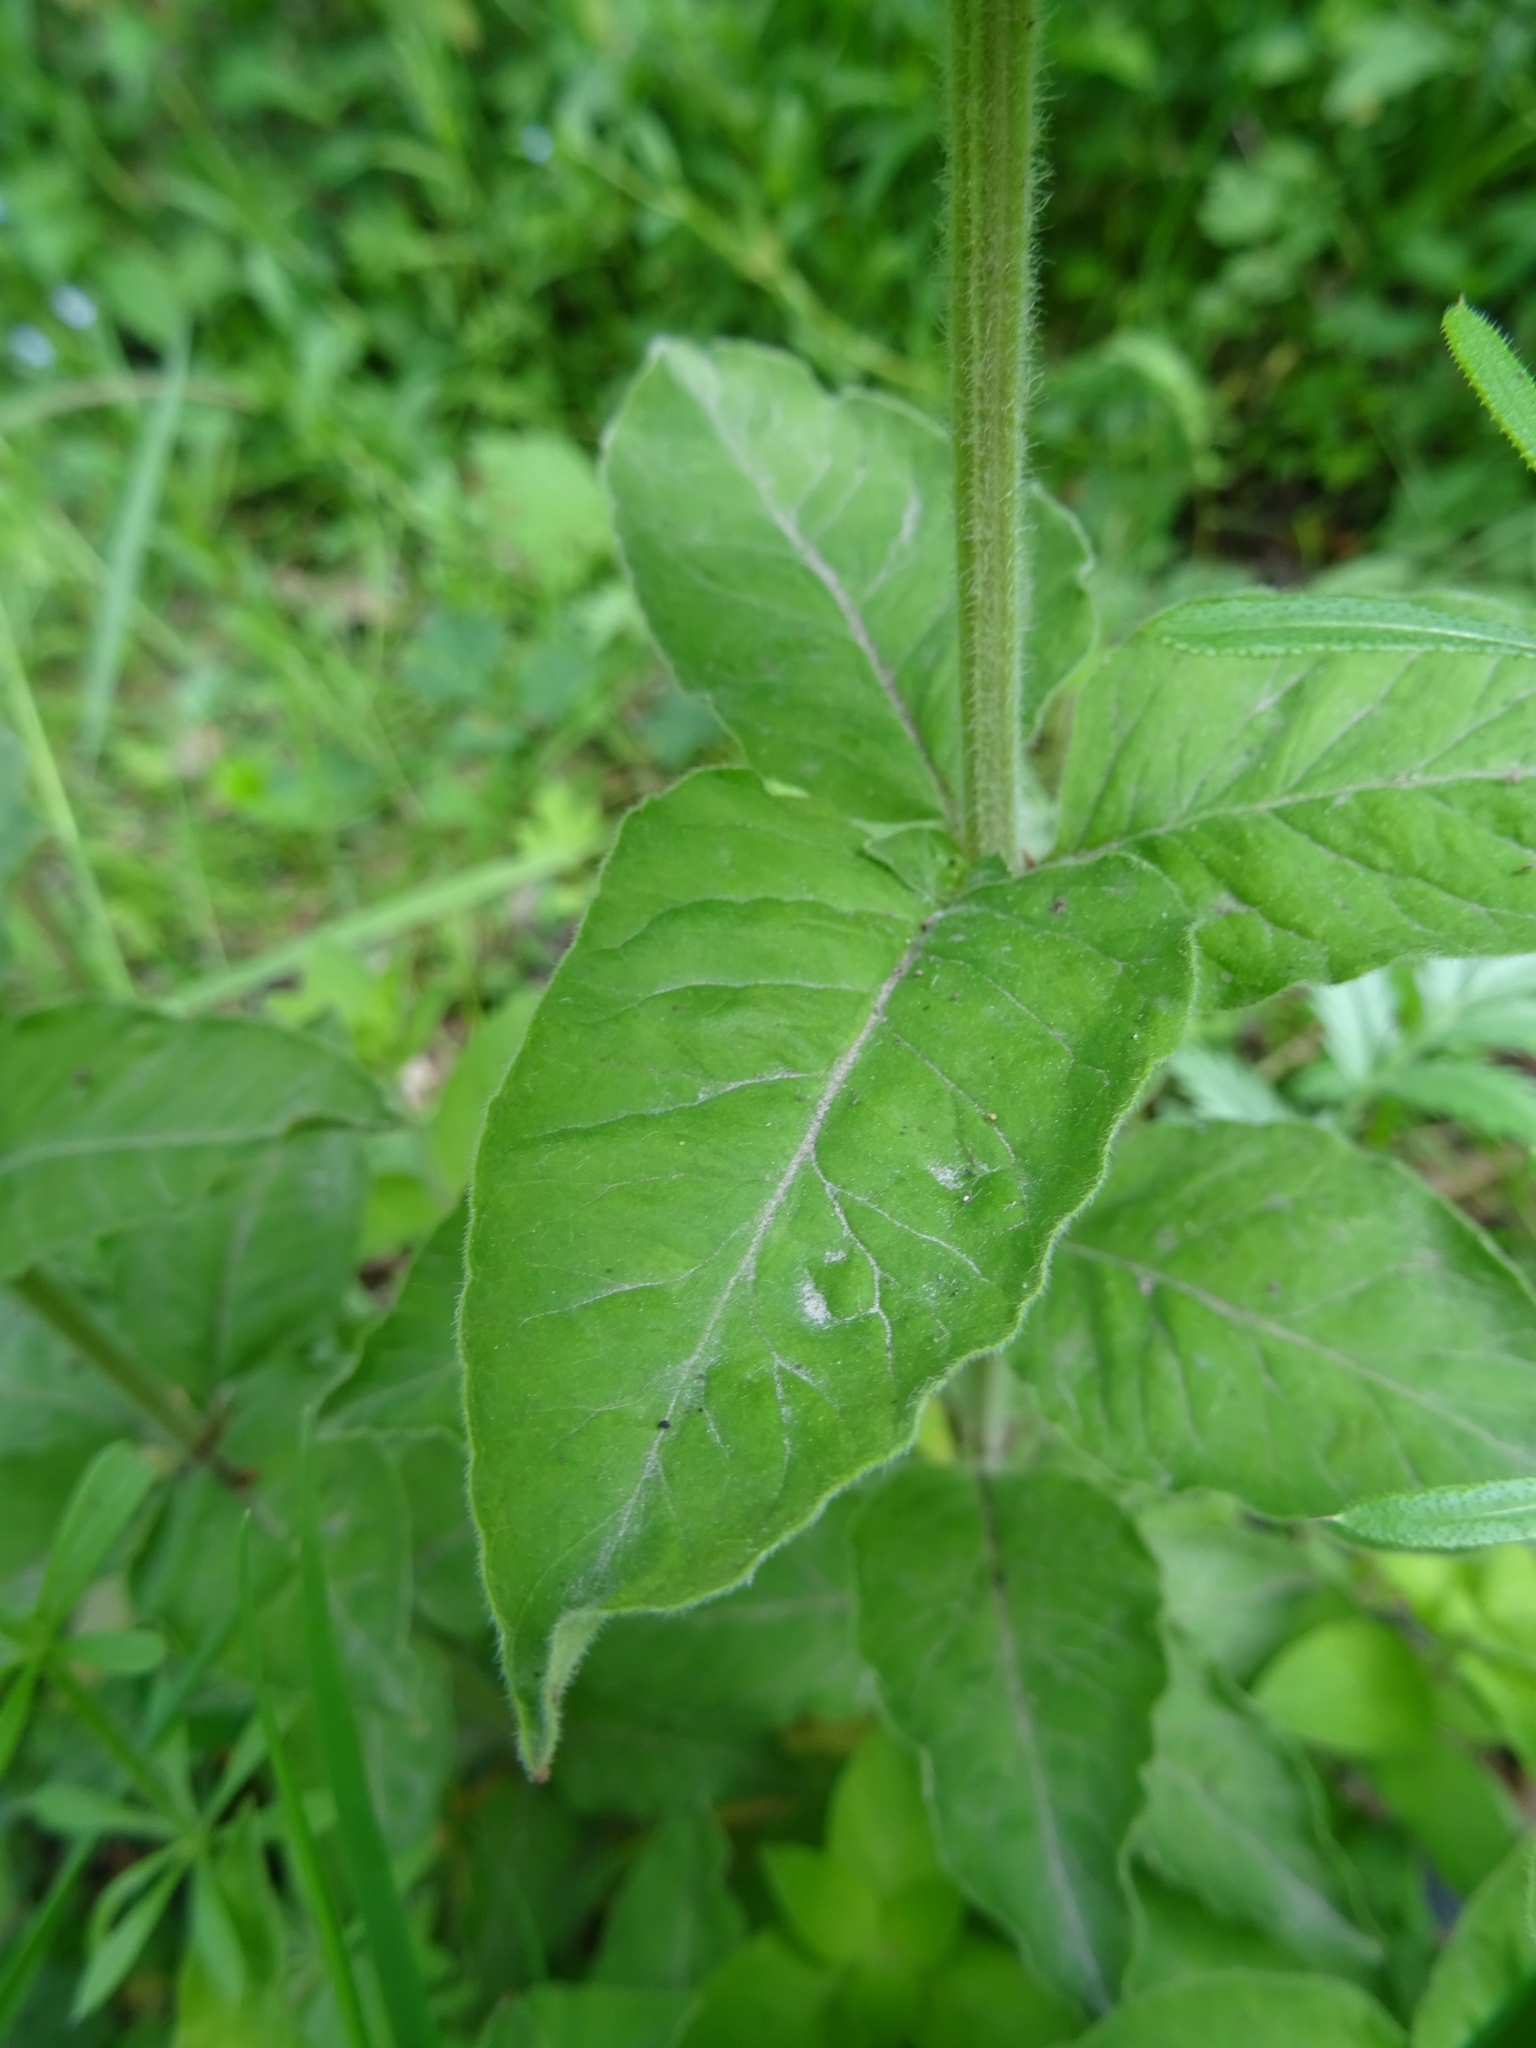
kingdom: Plantae
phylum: Tracheophyta
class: Magnoliopsida
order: Ericales
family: Primulaceae
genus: Lysimachia
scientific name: Lysimachia punctata
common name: Dotted loosestrife
